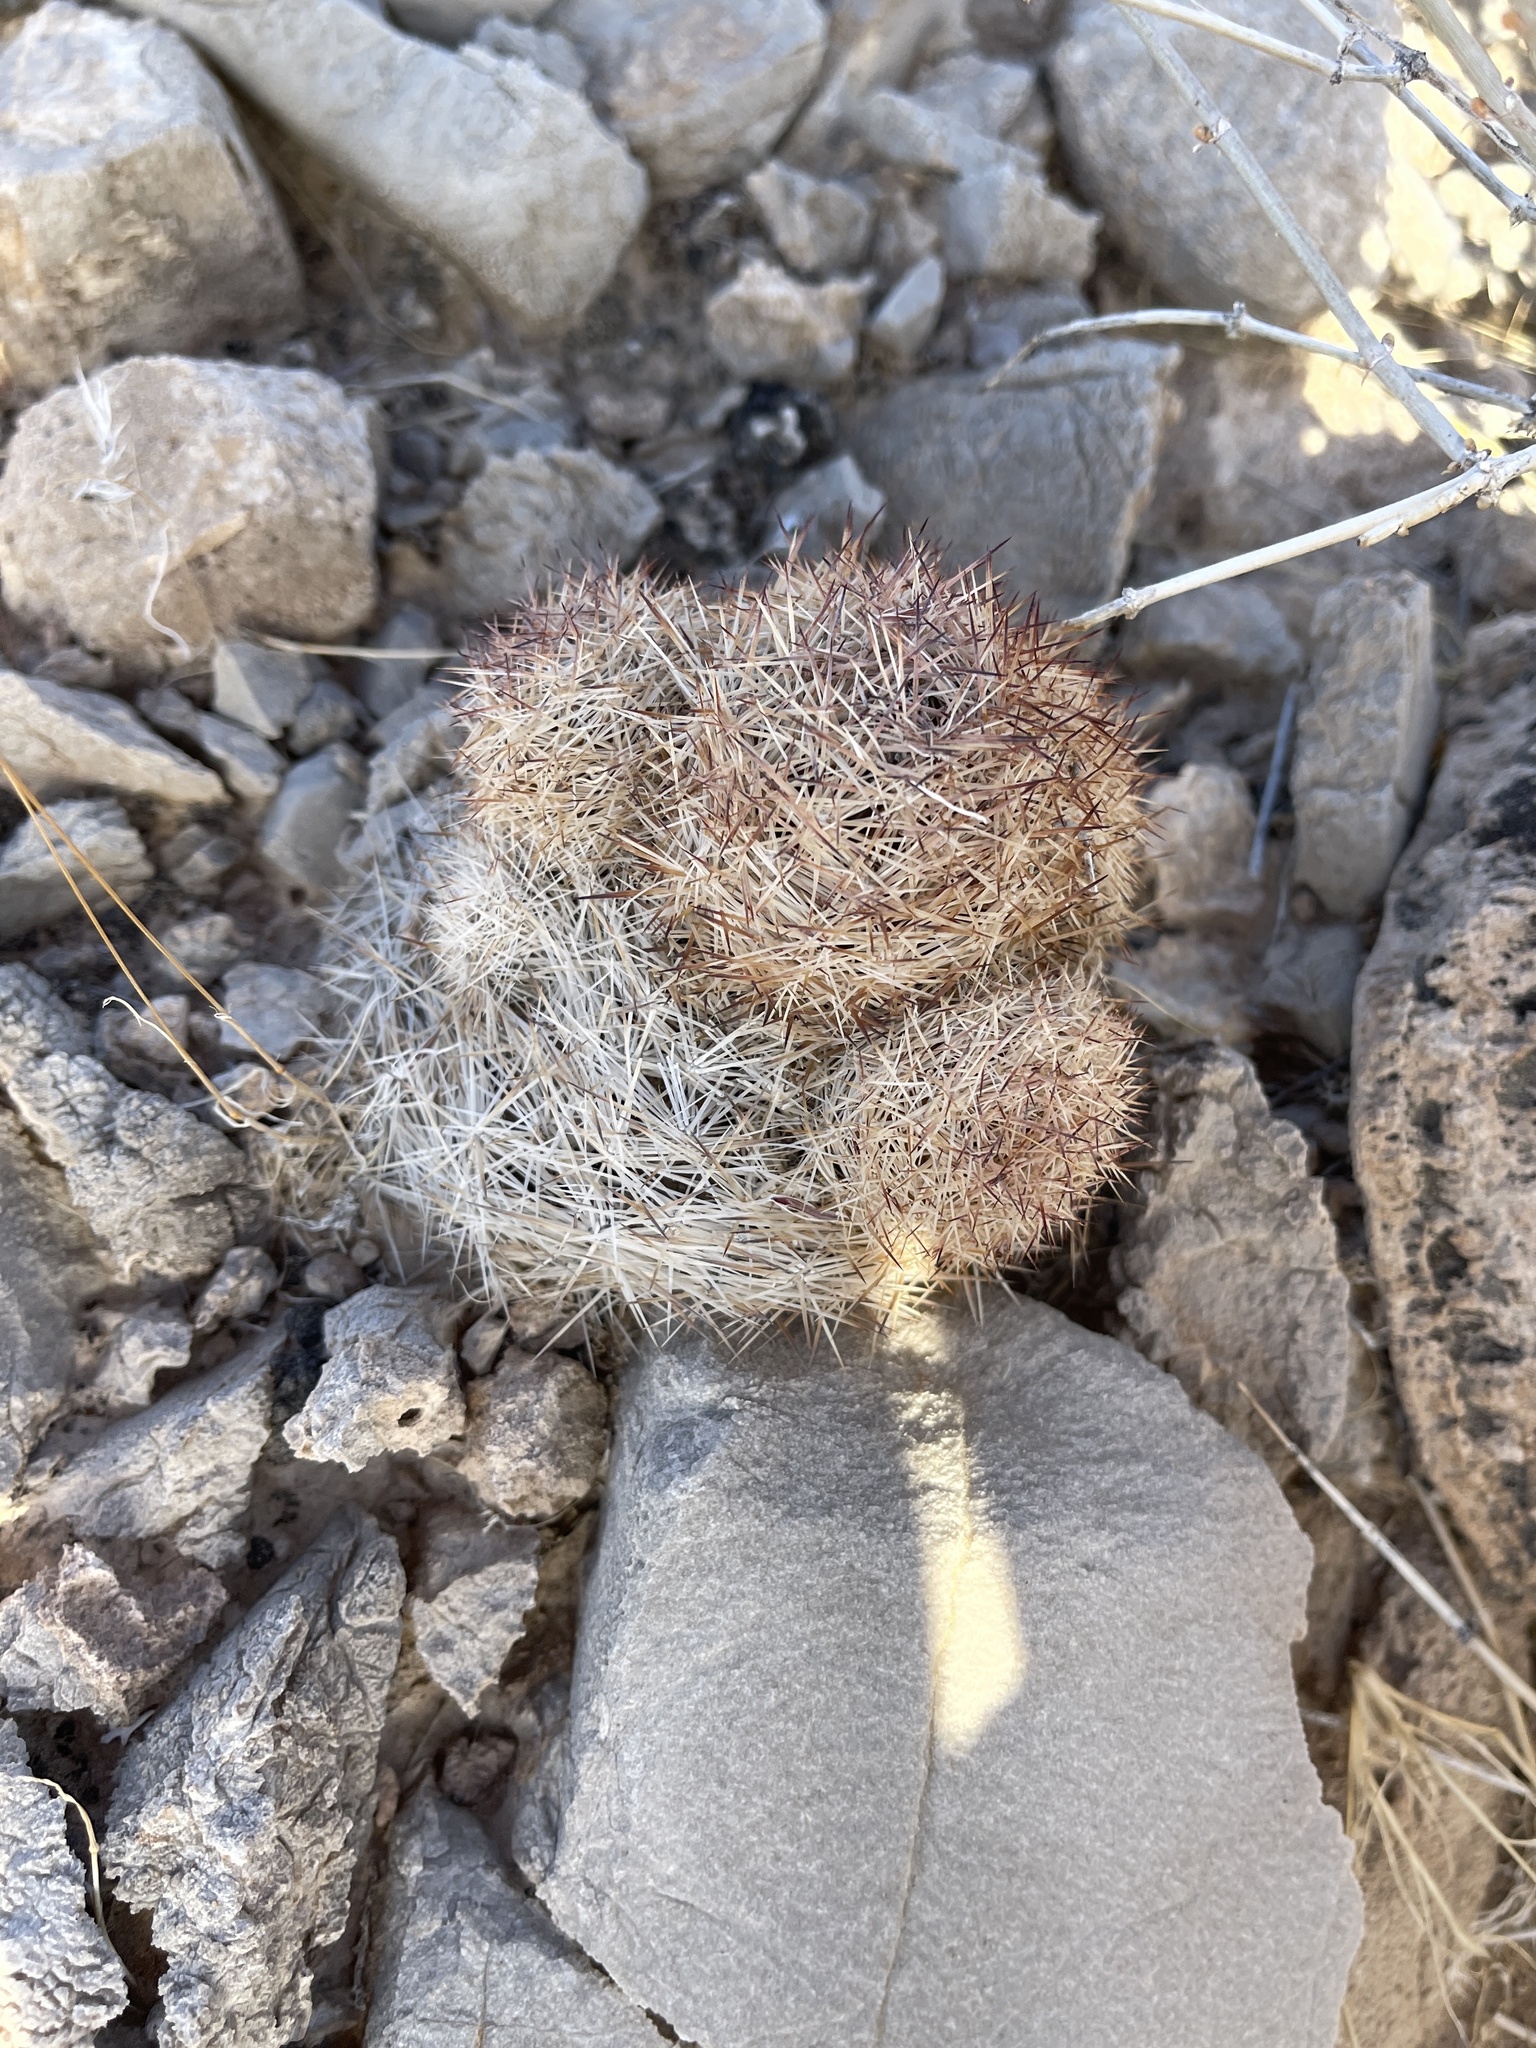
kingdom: Plantae
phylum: Tracheophyta
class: Magnoliopsida
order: Caryophyllales
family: Cactaceae
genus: Pelecyphora
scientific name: Pelecyphora dasyacantha
